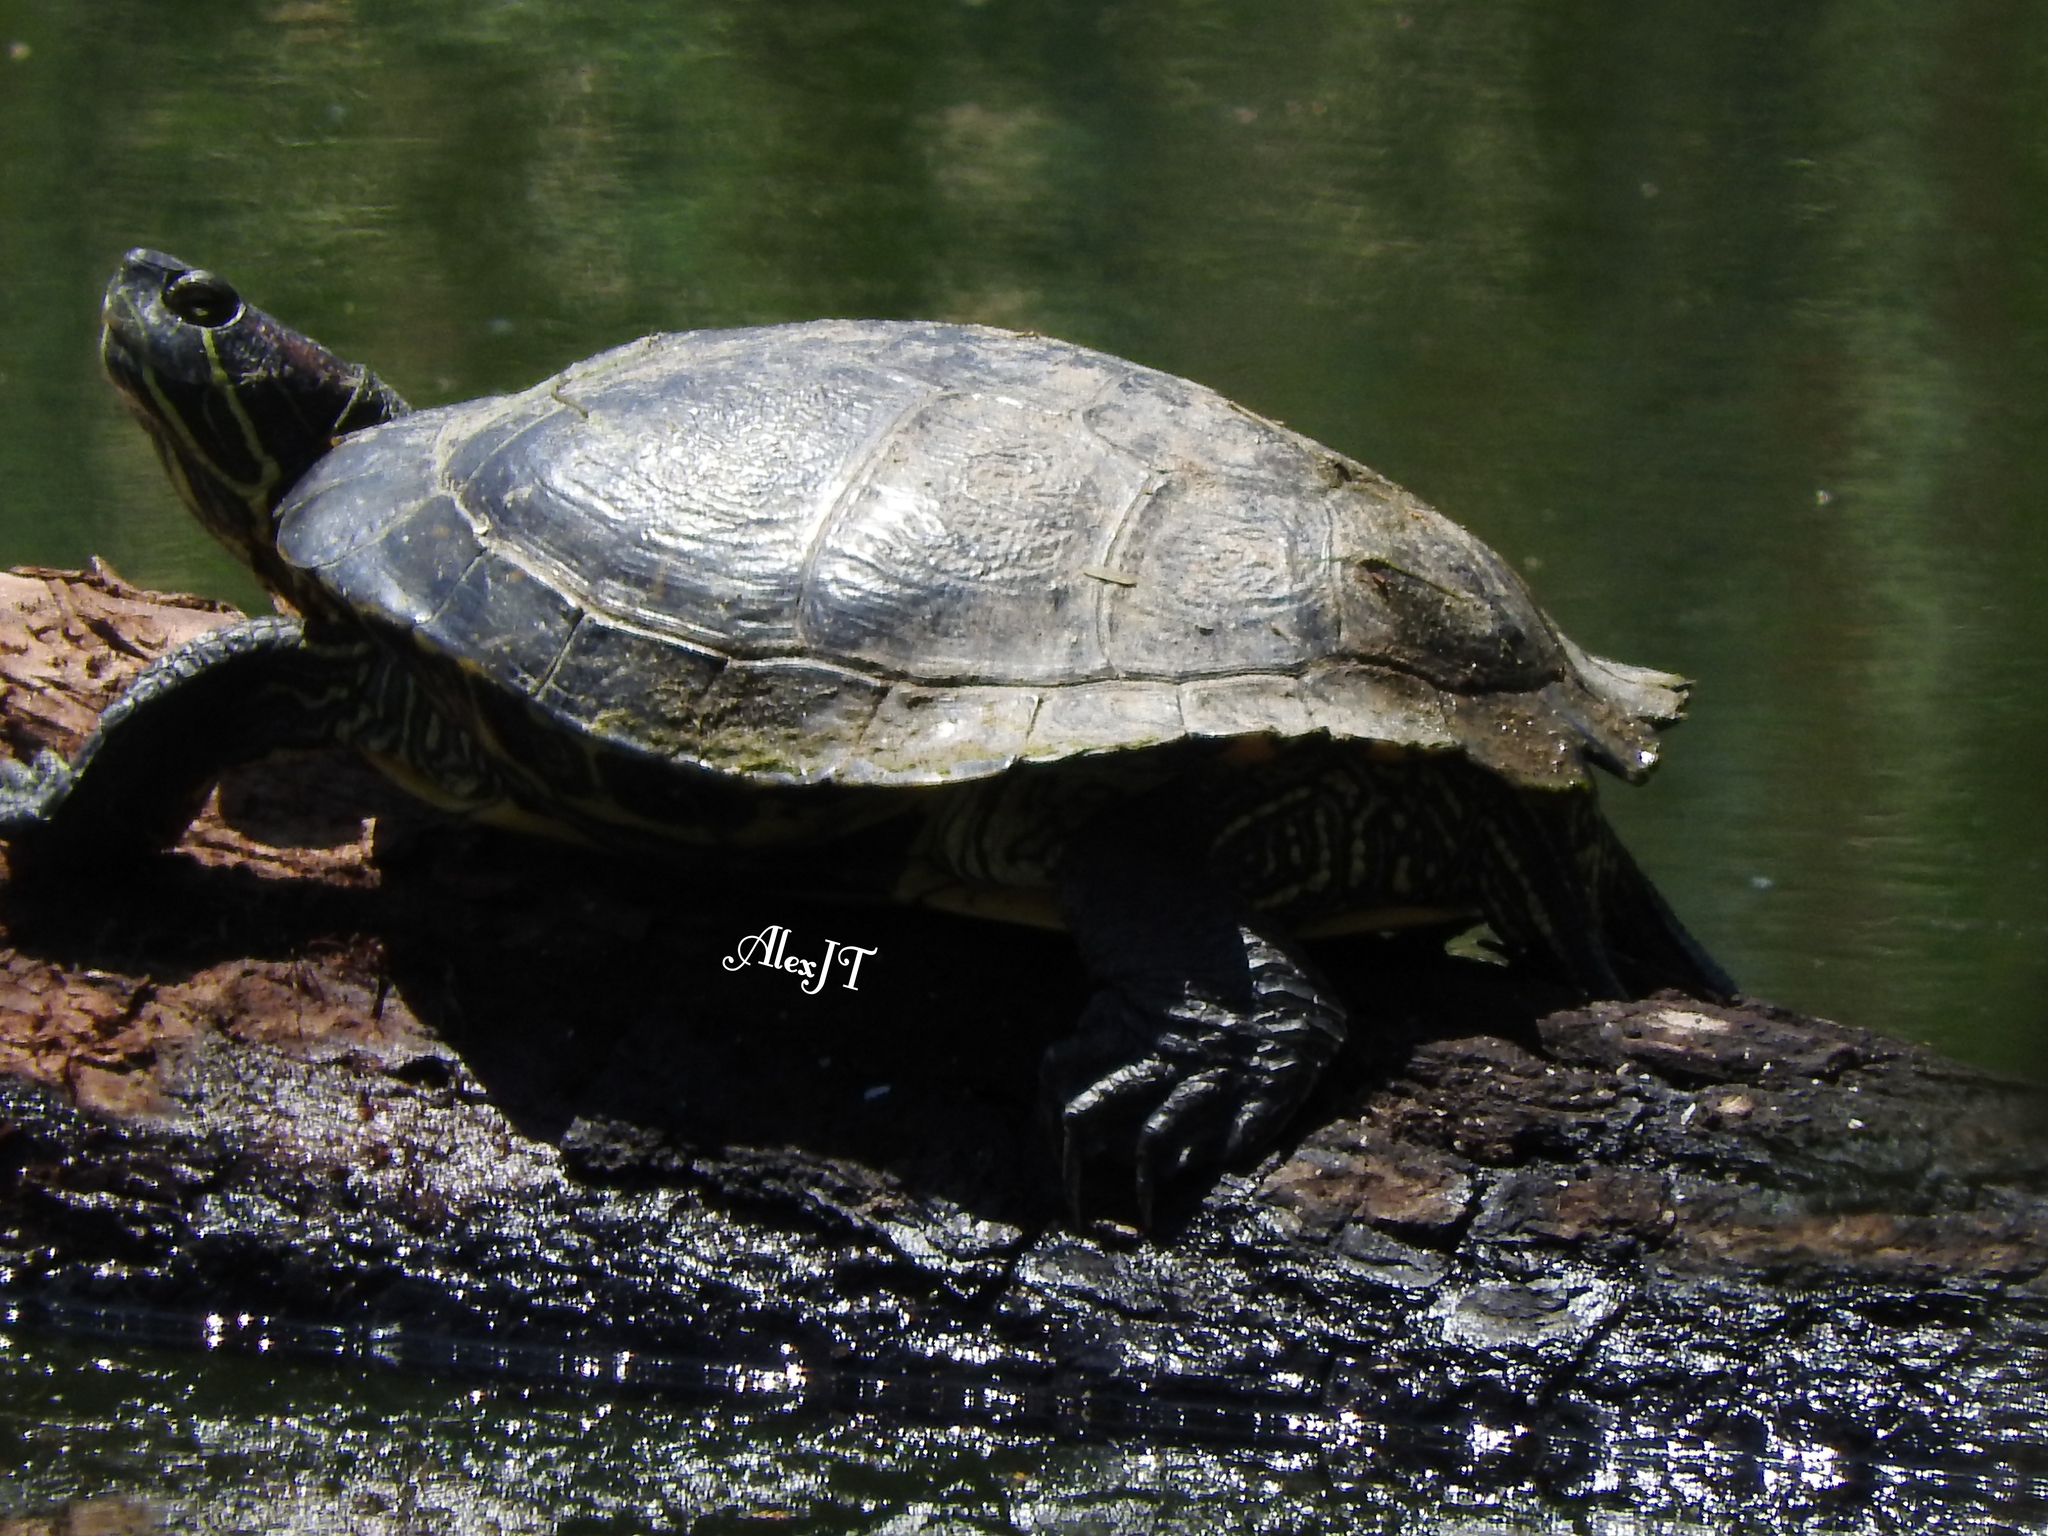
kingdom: Animalia
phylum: Chordata
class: Testudines
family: Emydidae
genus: Trachemys
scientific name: Trachemys scripta
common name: Slider
